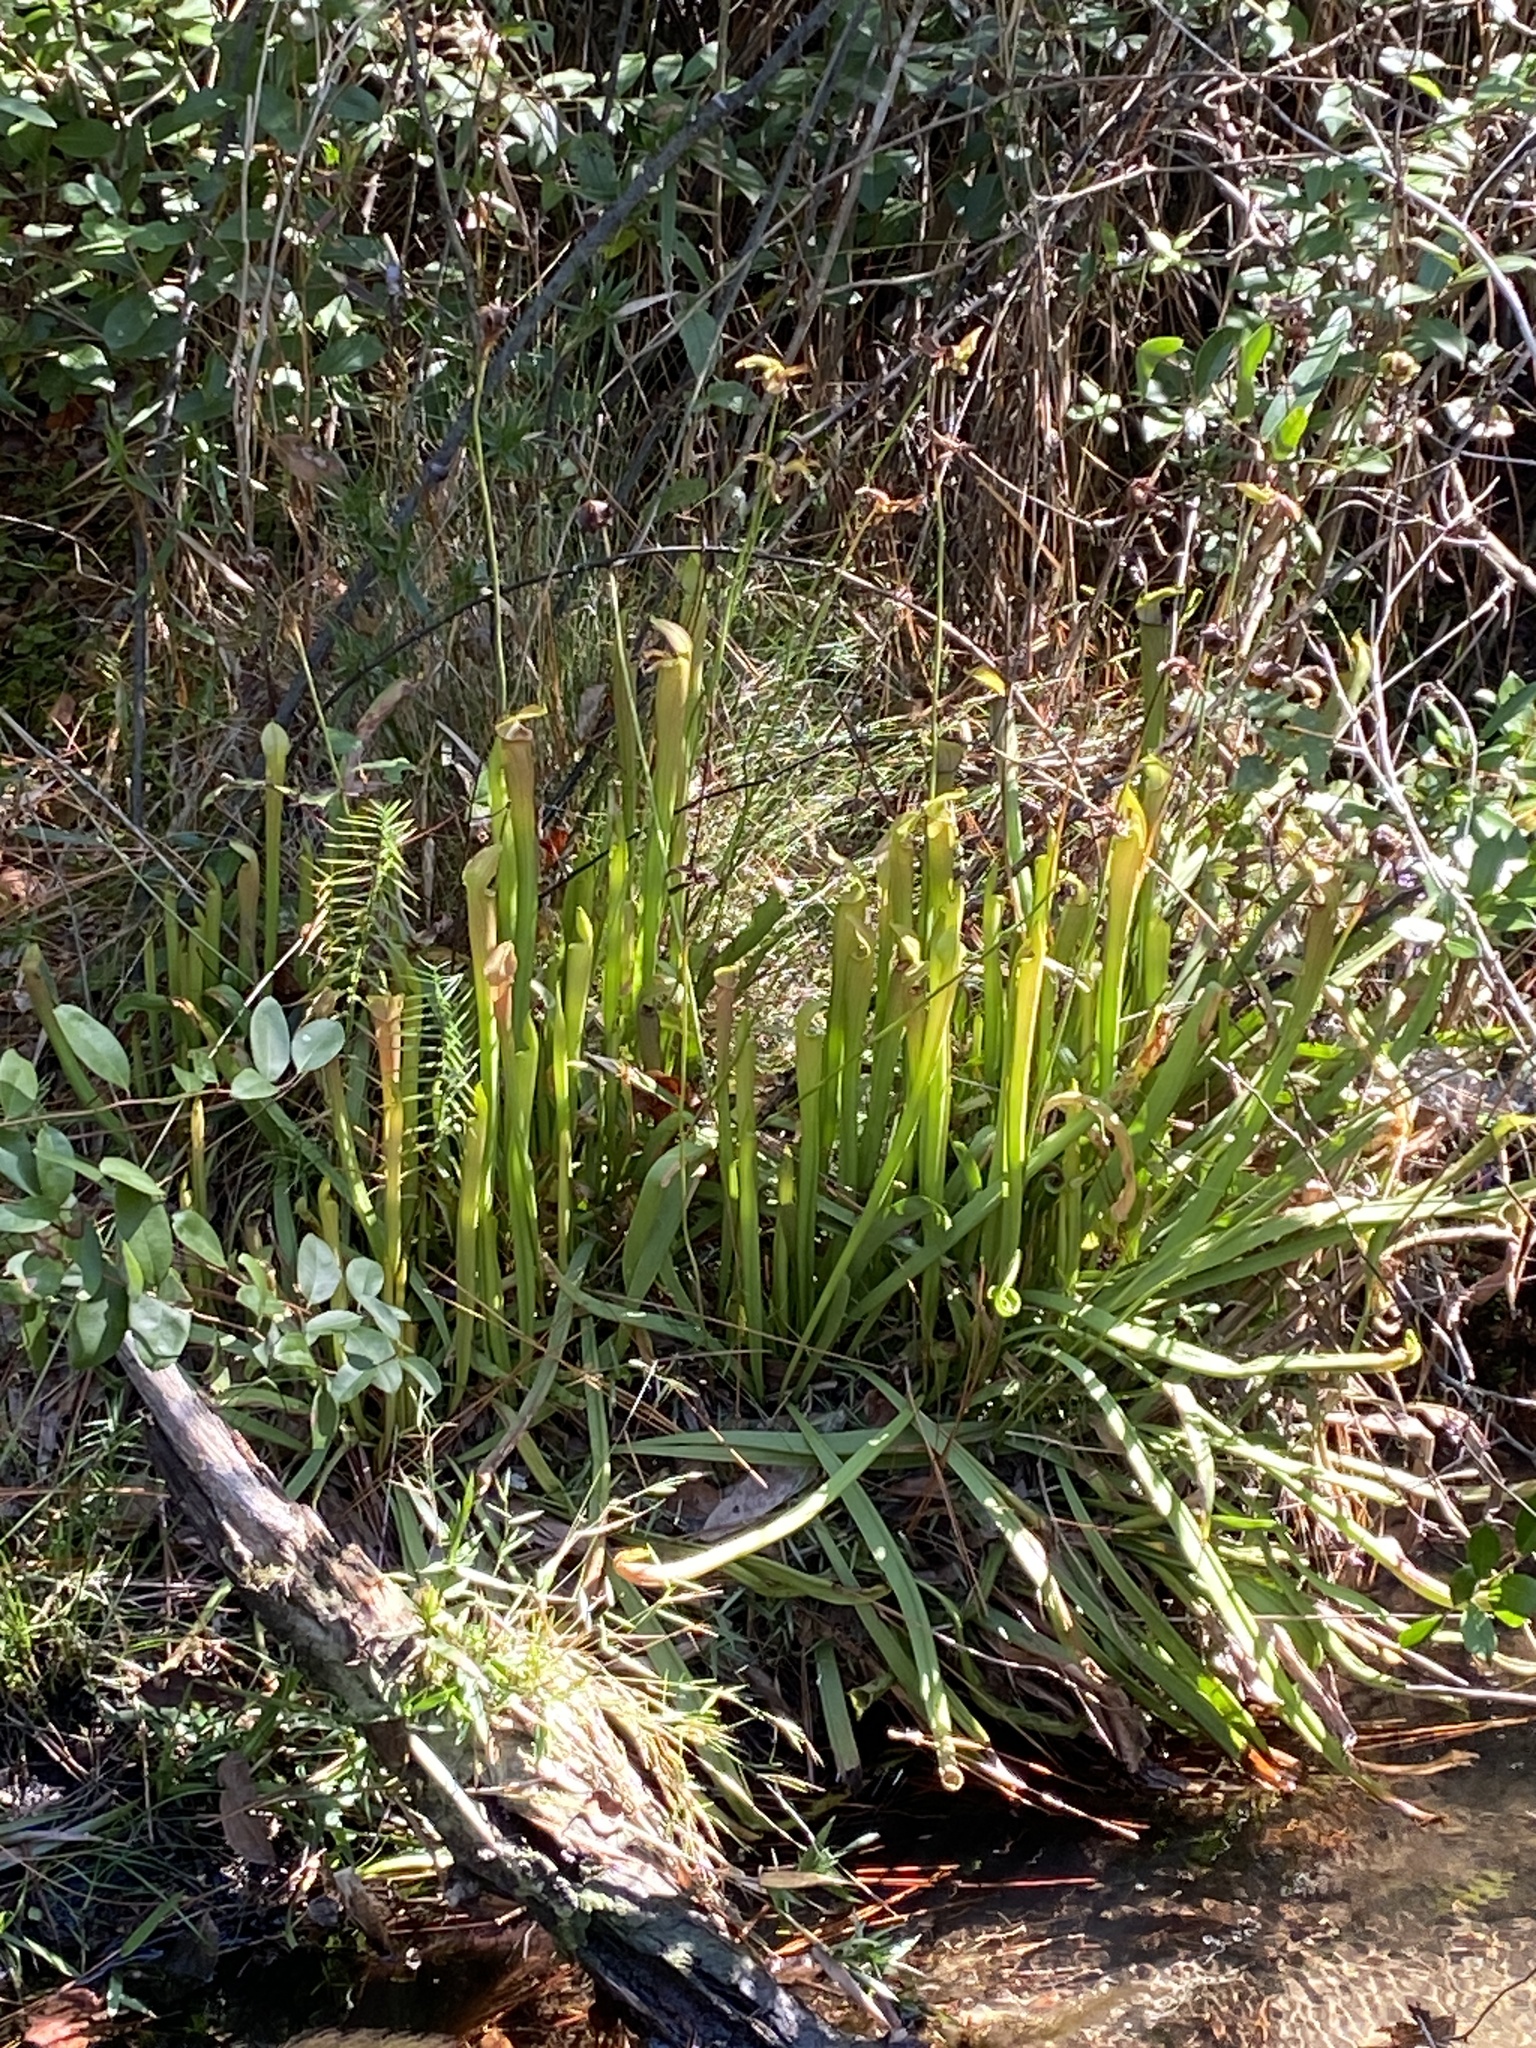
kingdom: Plantae
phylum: Tracheophyta
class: Magnoliopsida
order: Ericales
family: Sarraceniaceae
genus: Sarracenia
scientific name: Sarracenia rubra
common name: Sweet pitcherplant
